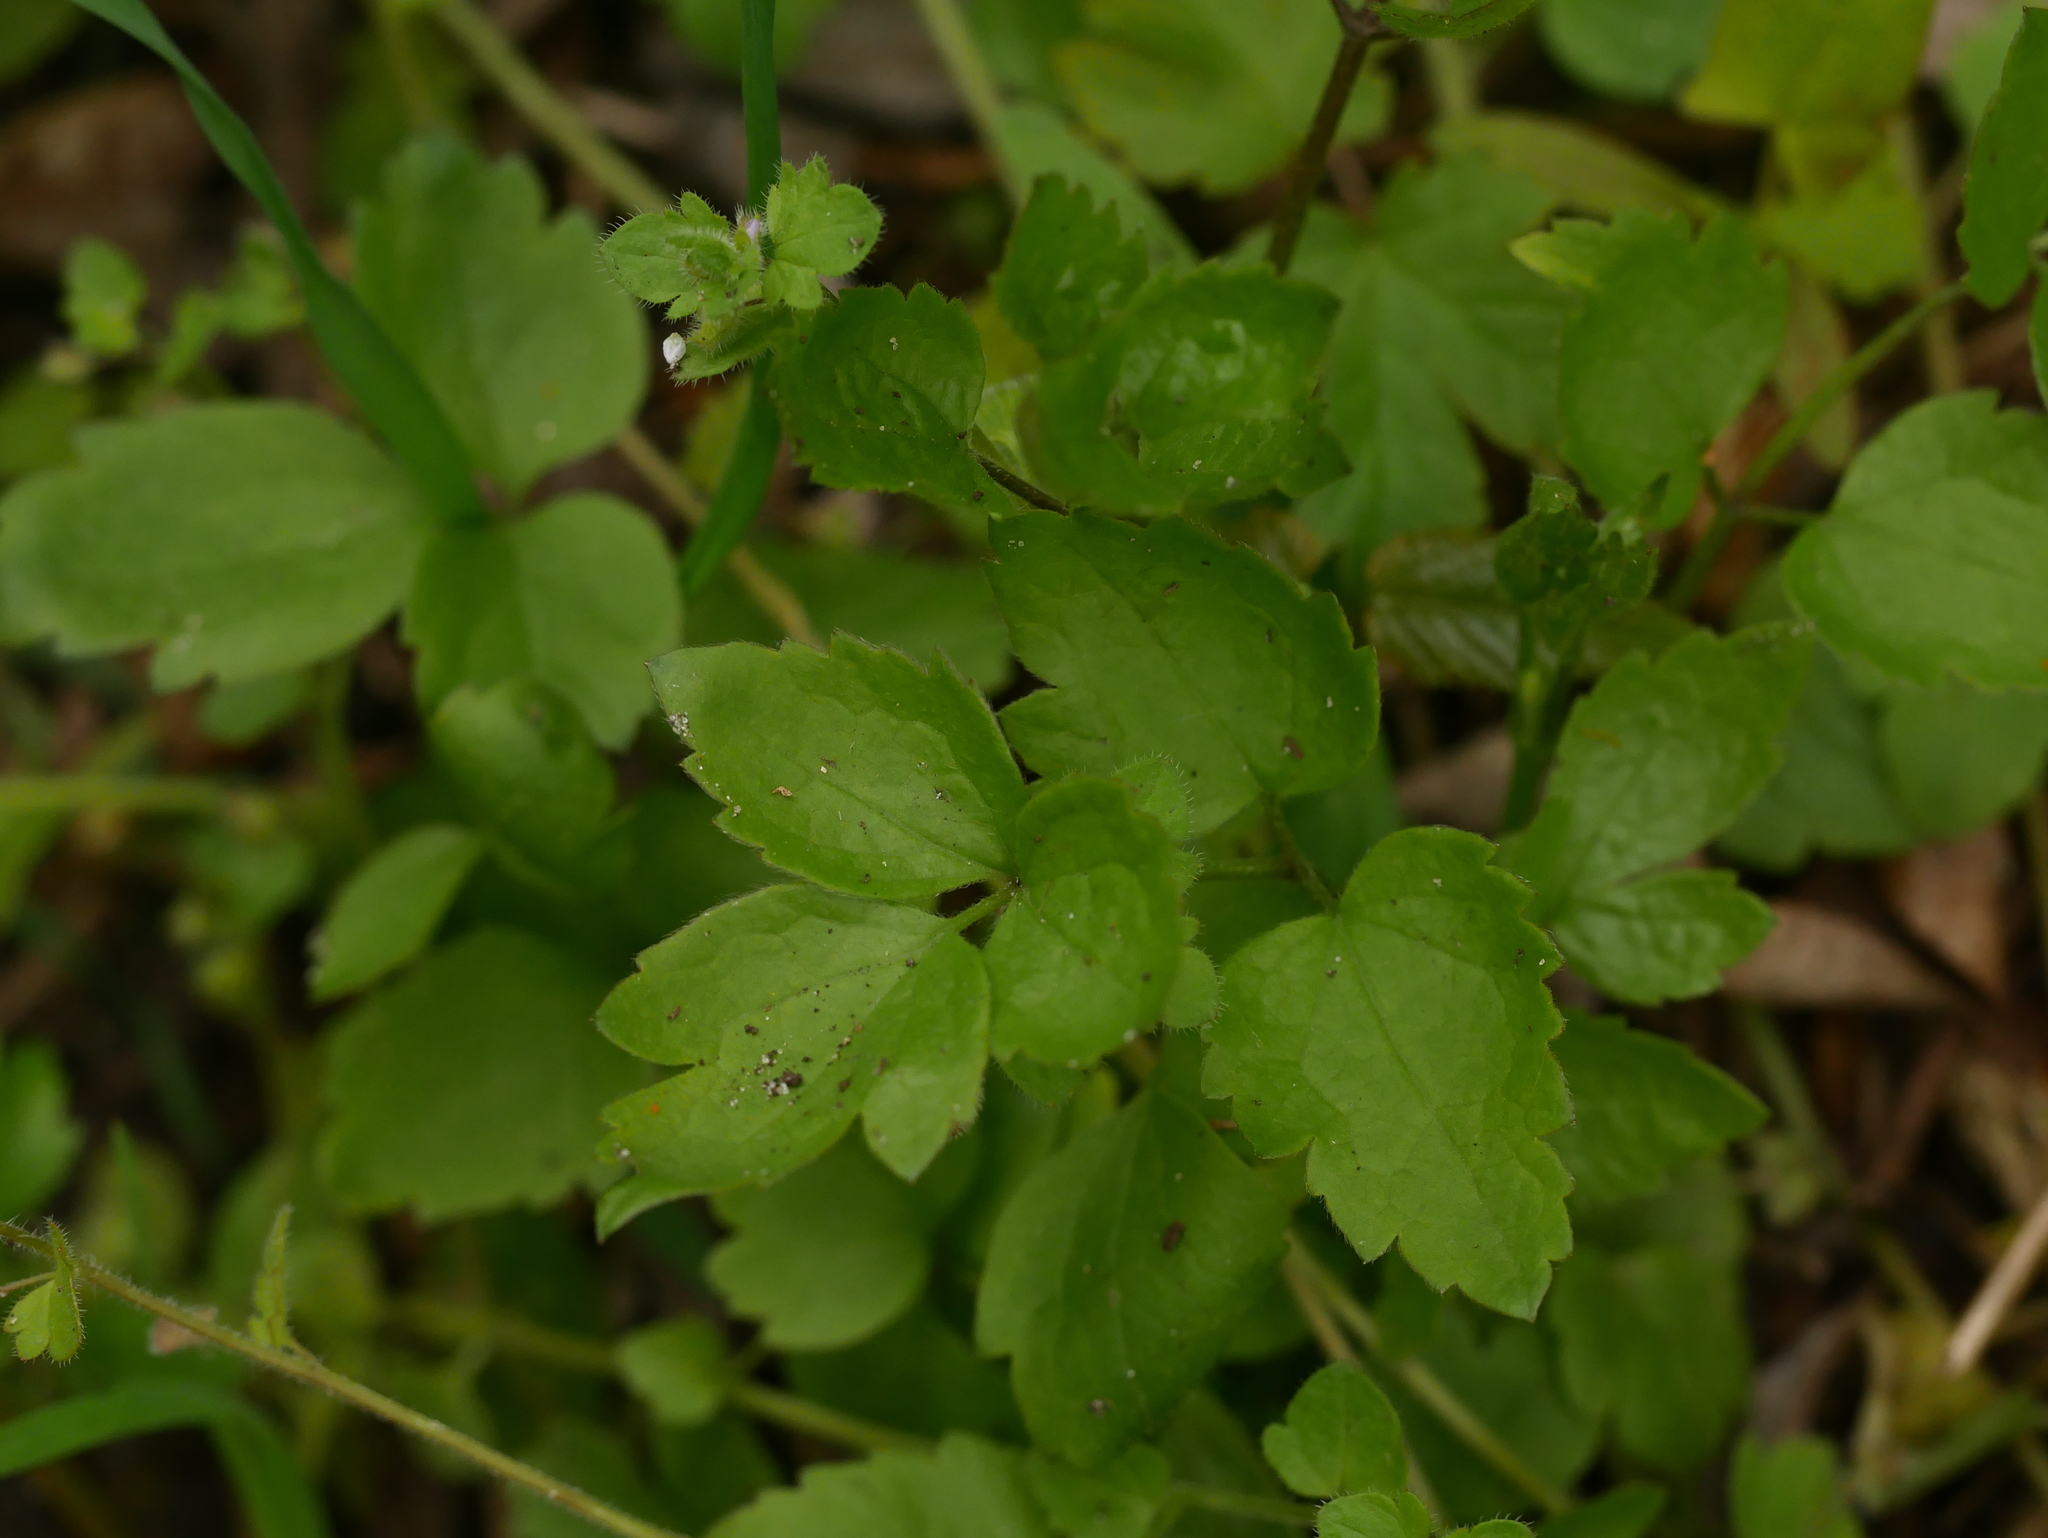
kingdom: Plantae
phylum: Tracheophyta
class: Magnoliopsida
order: Ranunculales
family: Ranunculaceae
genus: Clematis
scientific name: Clematis vitalba
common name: Evergreen clematis
